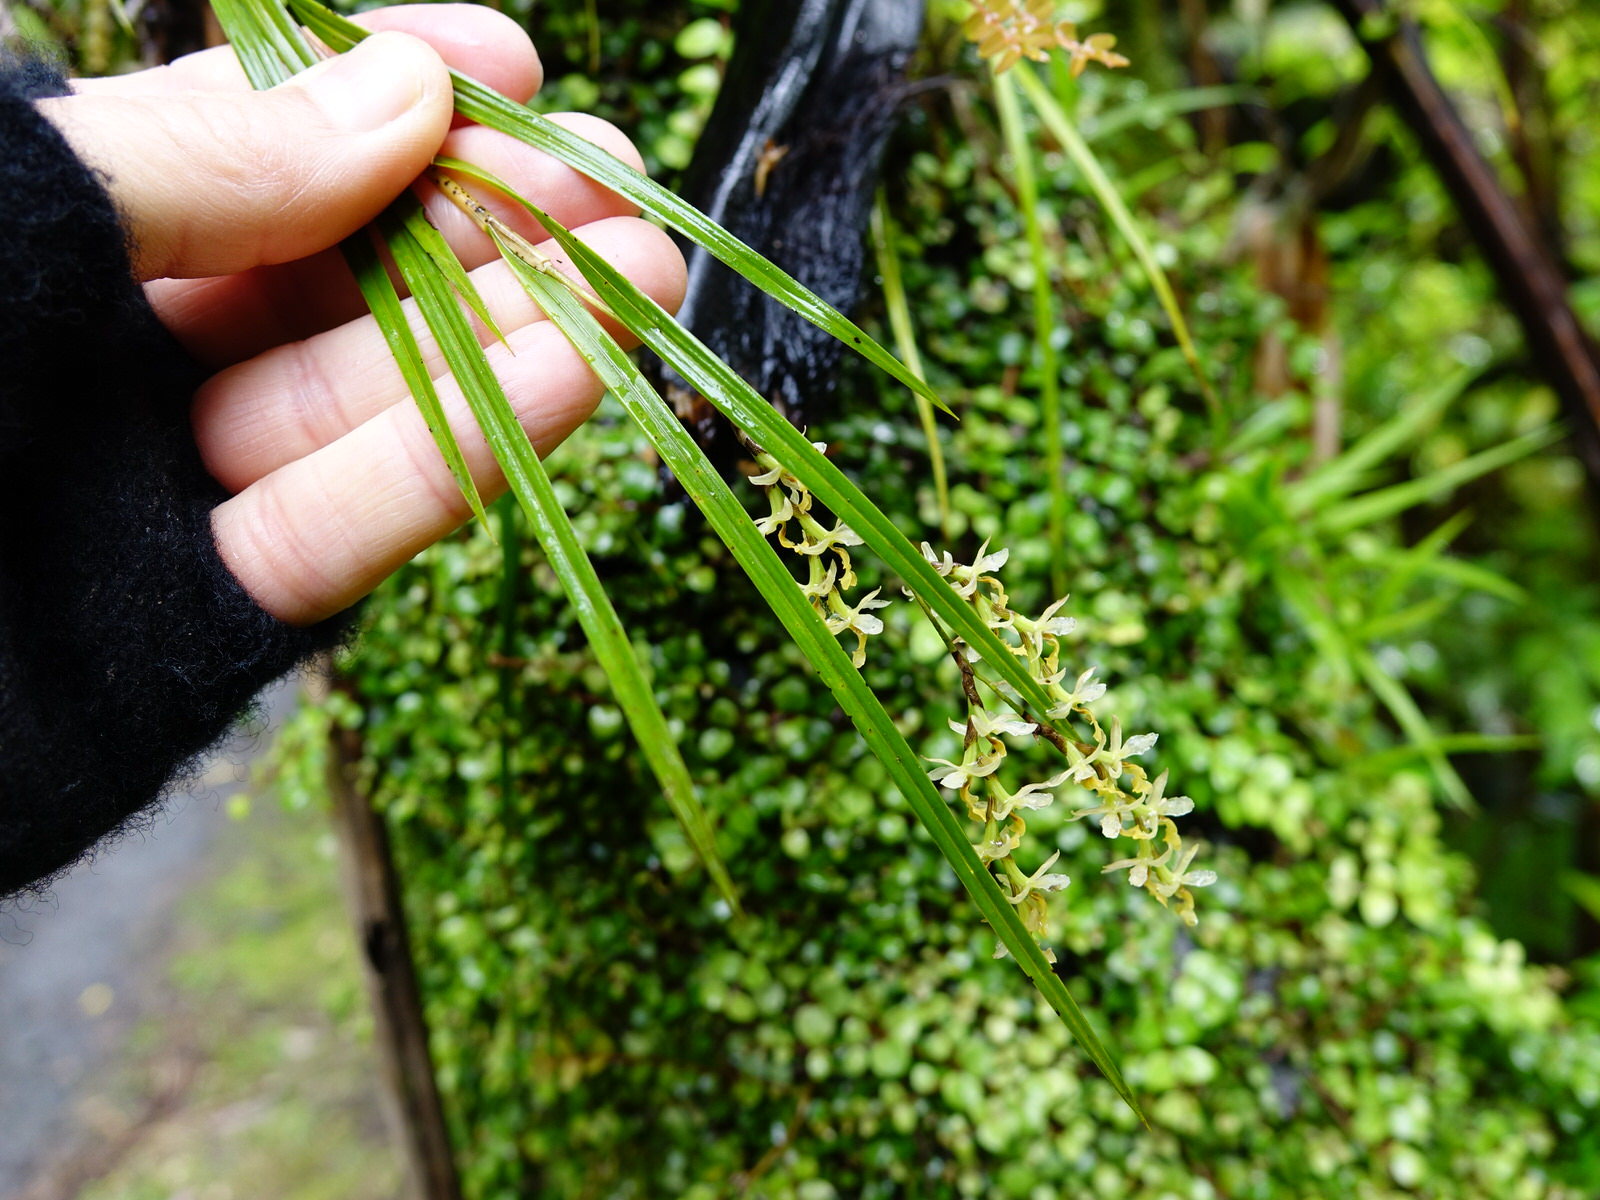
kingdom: Plantae
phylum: Tracheophyta
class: Liliopsida
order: Asparagales
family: Orchidaceae
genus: Earina
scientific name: Earina mucronata
